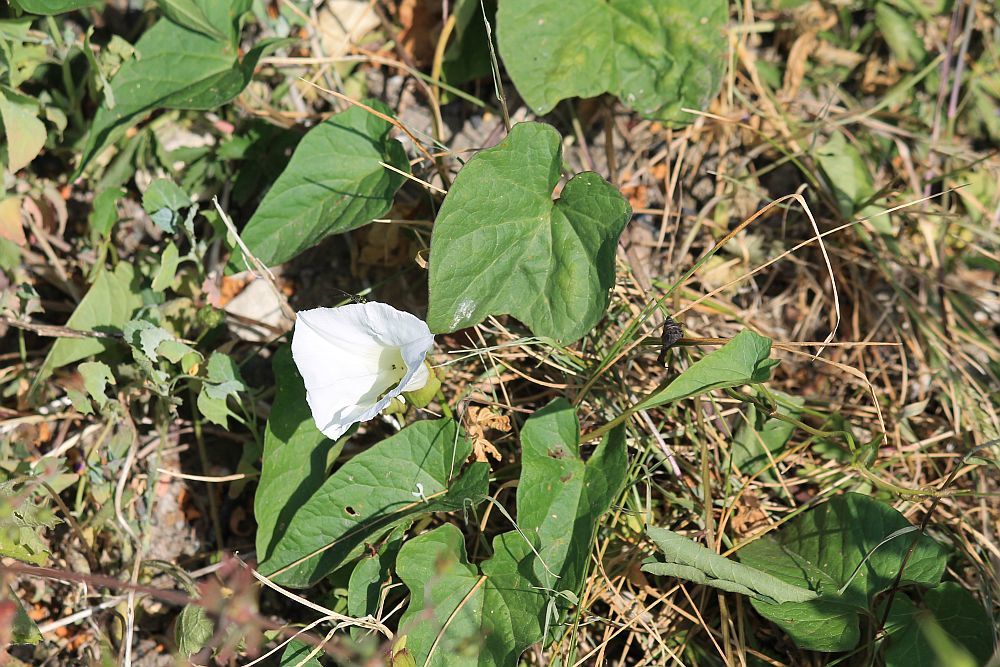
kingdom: Plantae
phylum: Tracheophyta
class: Magnoliopsida
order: Solanales
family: Convolvulaceae
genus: Calystegia
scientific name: Calystegia sepium
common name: Hedge bindweed
